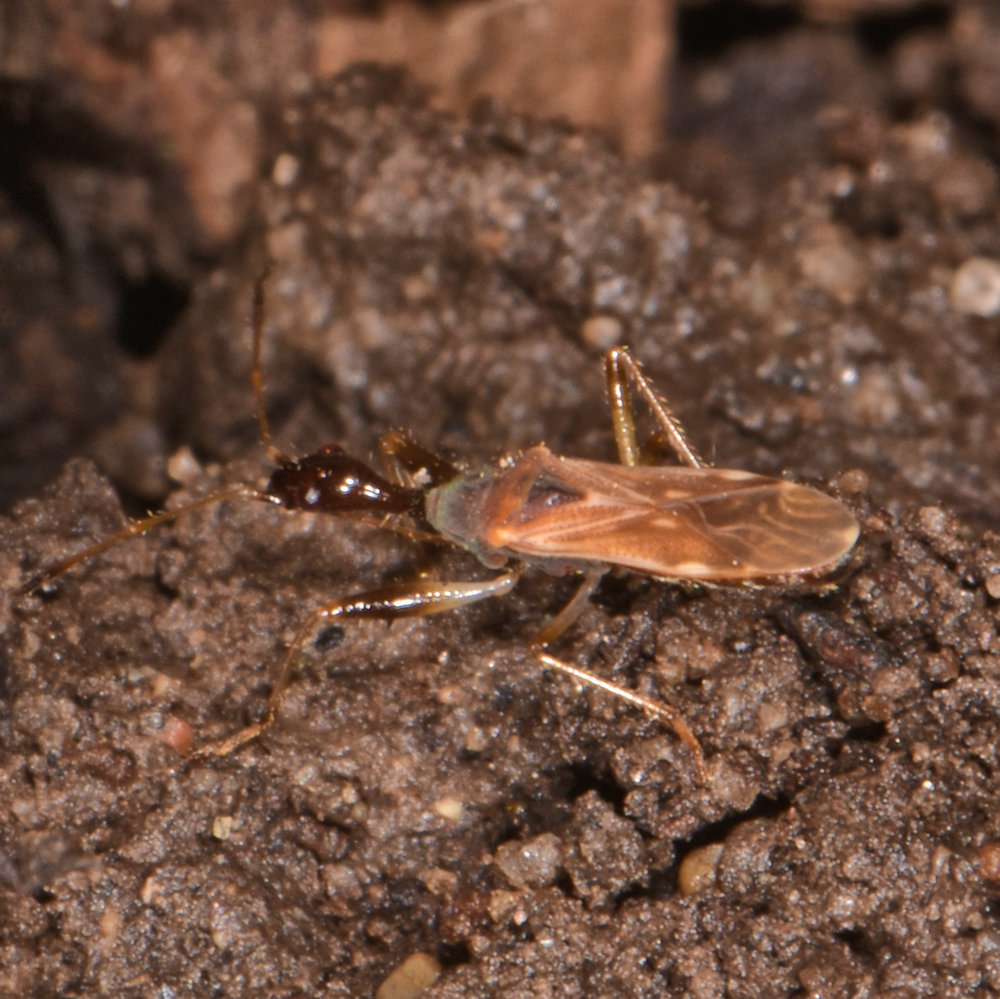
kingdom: Animalia
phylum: Arthropoda
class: Insecta
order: Hemiptera
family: Rhyparochromidae
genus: Myodocha
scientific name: Myodocha serripes
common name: Long-necked seed bug
